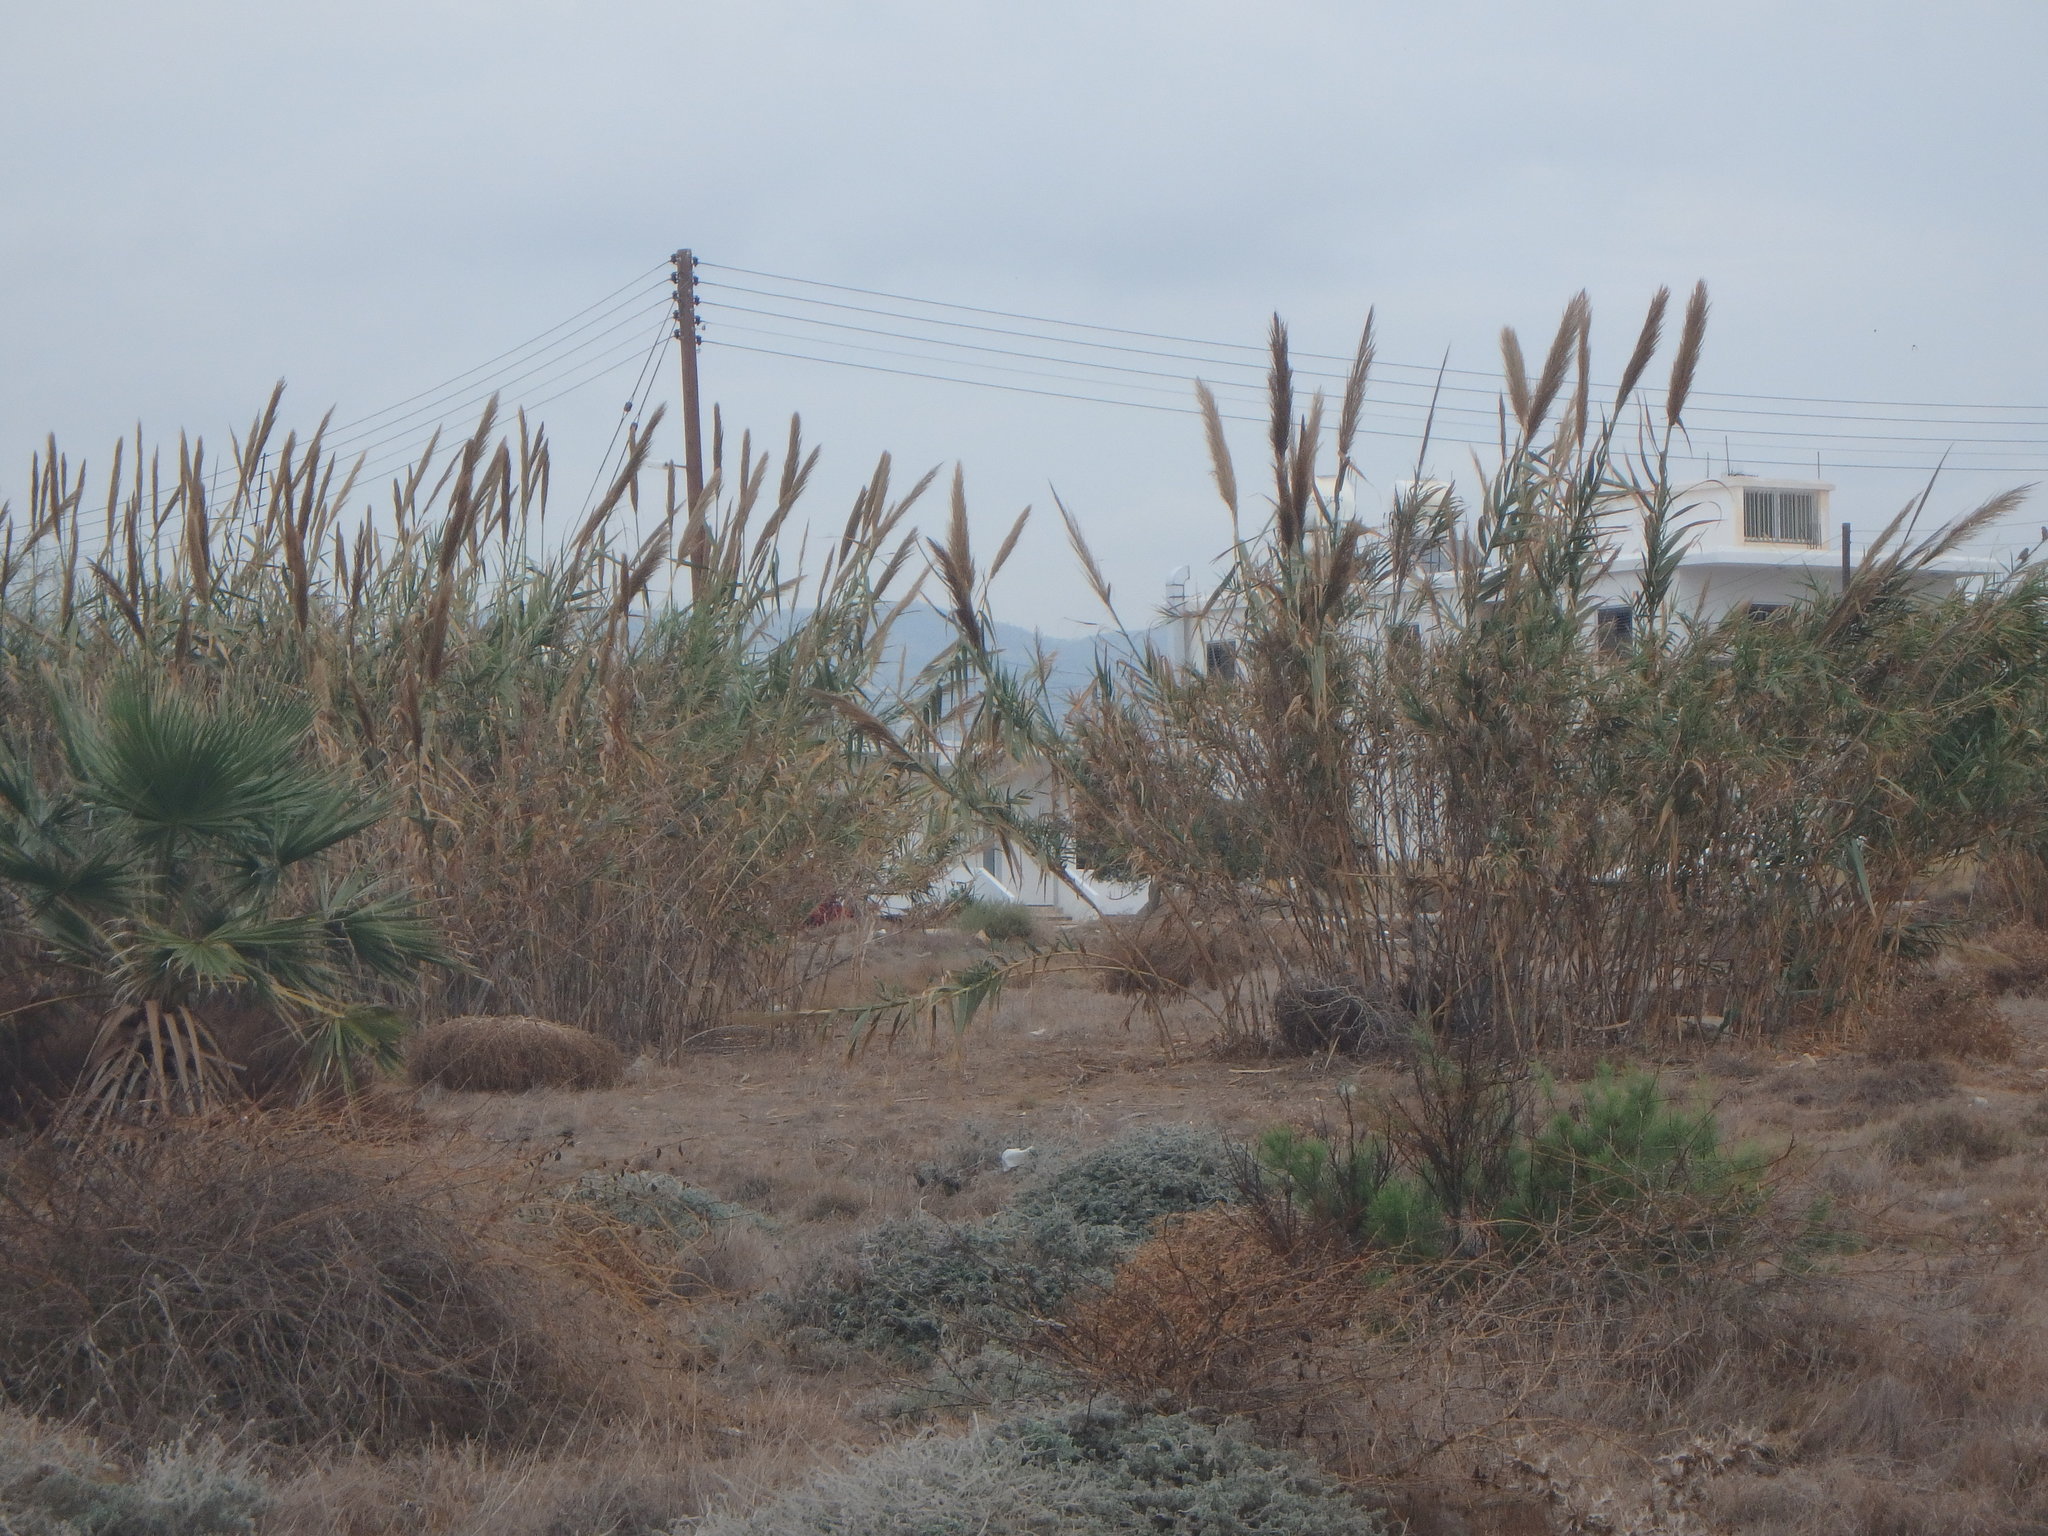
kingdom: Plantae
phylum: Tracheophyta
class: Liliopsida
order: Poales
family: Poaceae
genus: Arundo
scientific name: Arundo donax
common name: Giant reed
